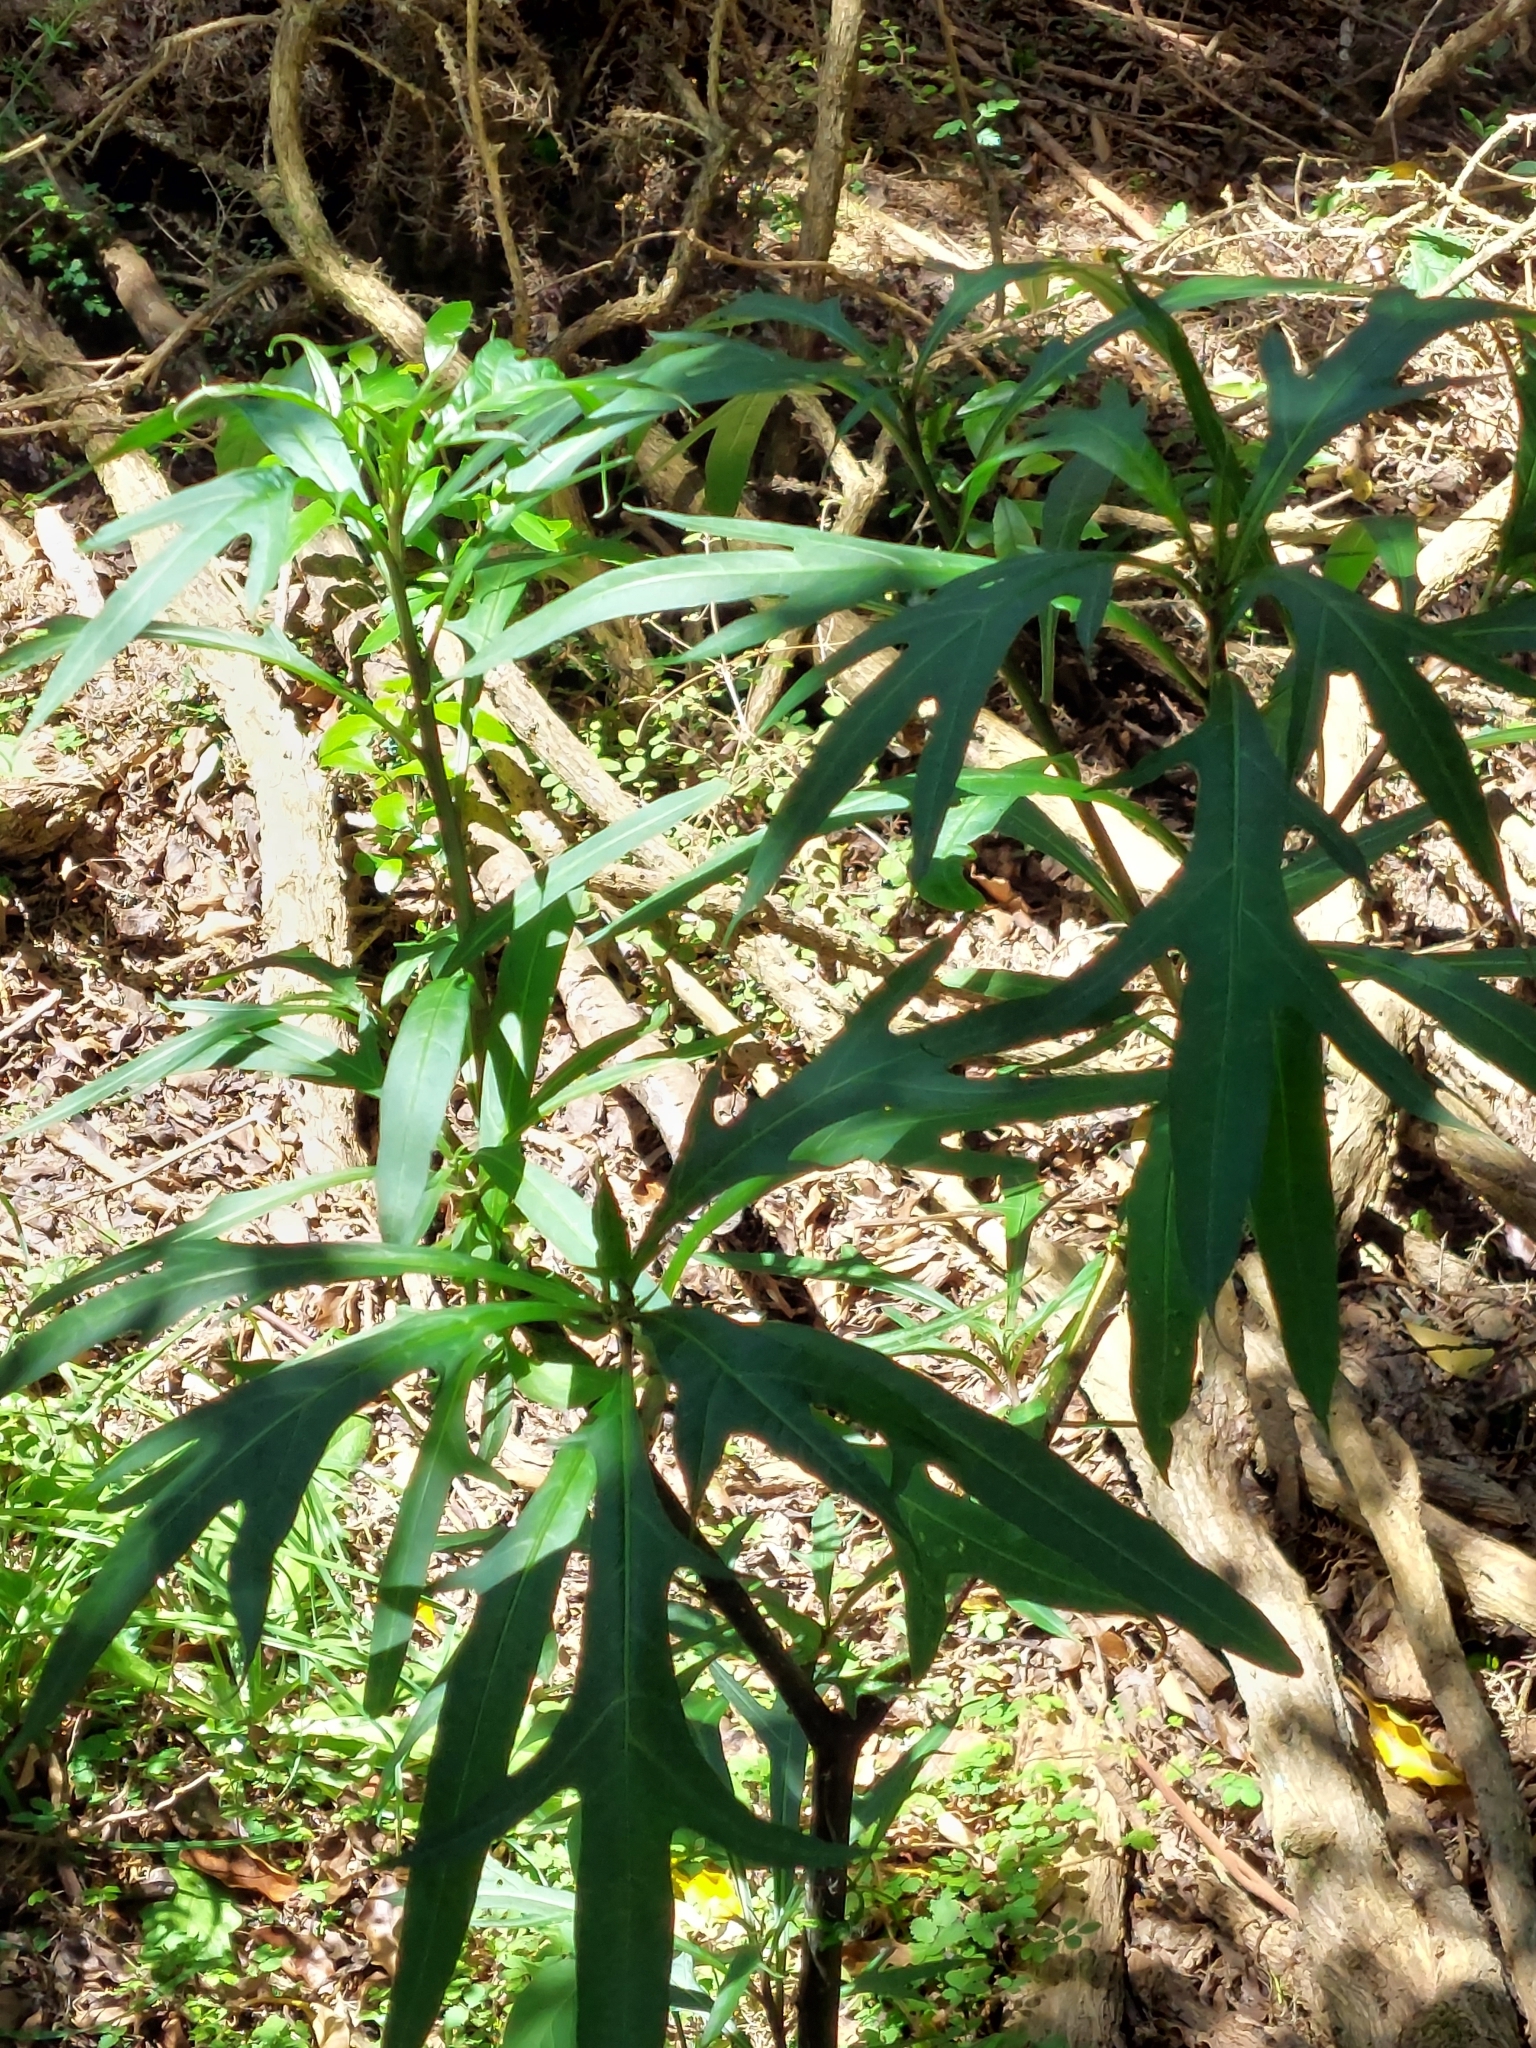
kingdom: Plantae
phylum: Tracheophyta
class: Magnoliopsida
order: Solanales
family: Solanaceae
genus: Solanum
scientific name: Solanum laciniatum
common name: Kangaroo-apple
